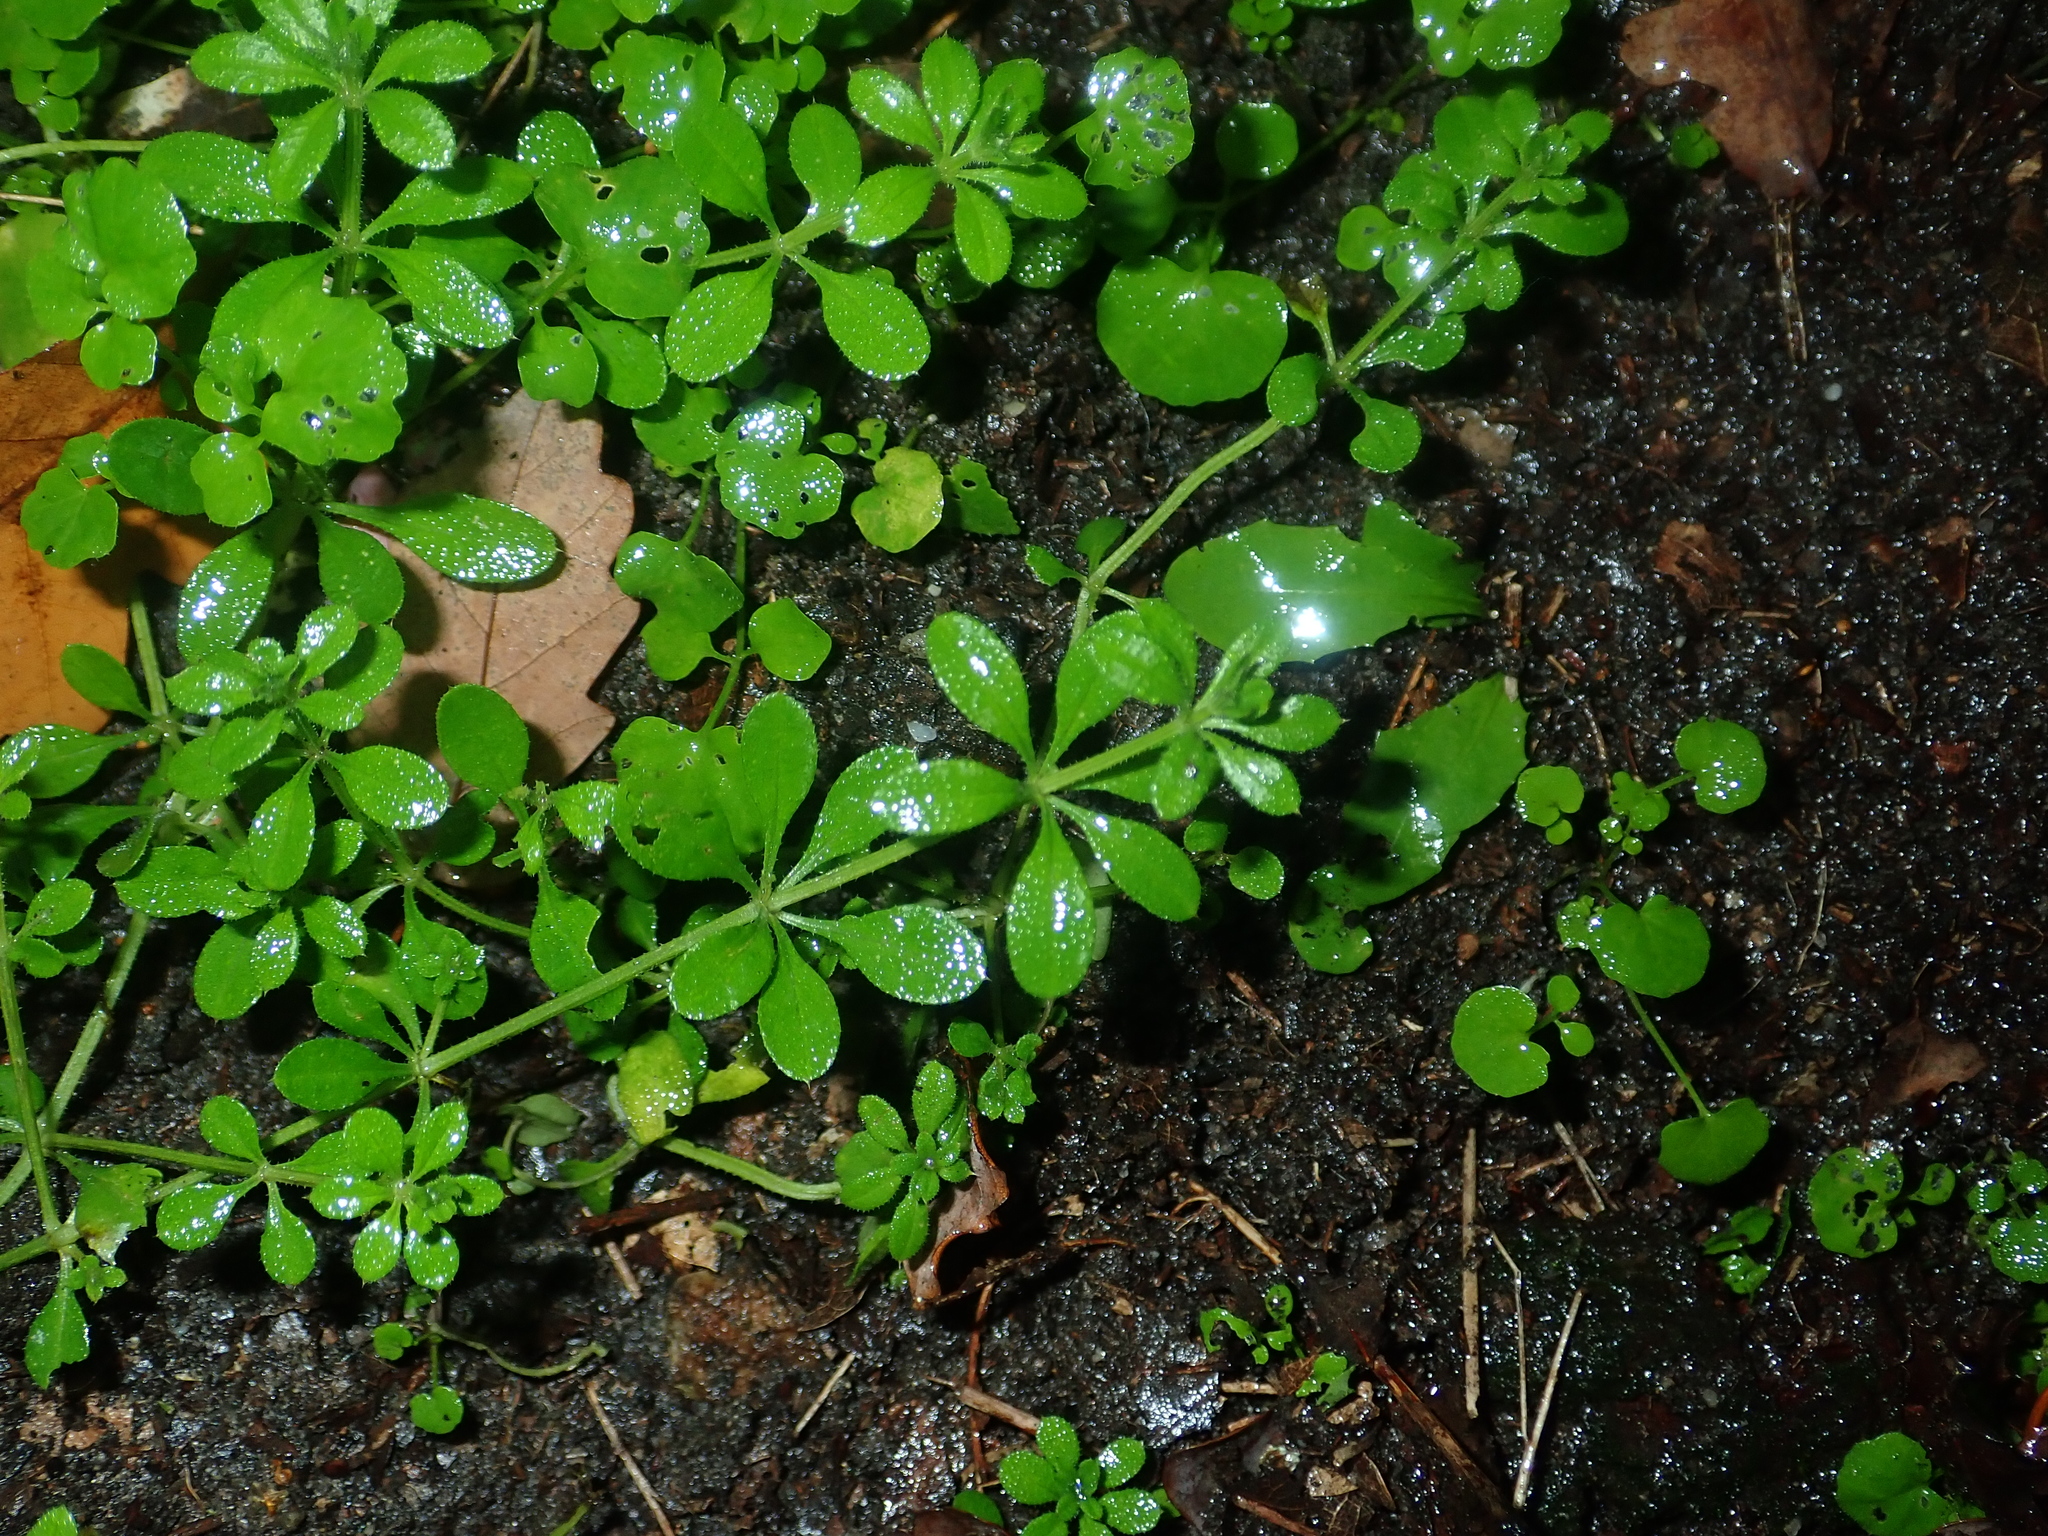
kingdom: Plantae
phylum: Tracheophyta
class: Magnoliopsida
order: Gentianales
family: Rubiaceae
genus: Galium
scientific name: Galium aparine
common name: Cleavers
